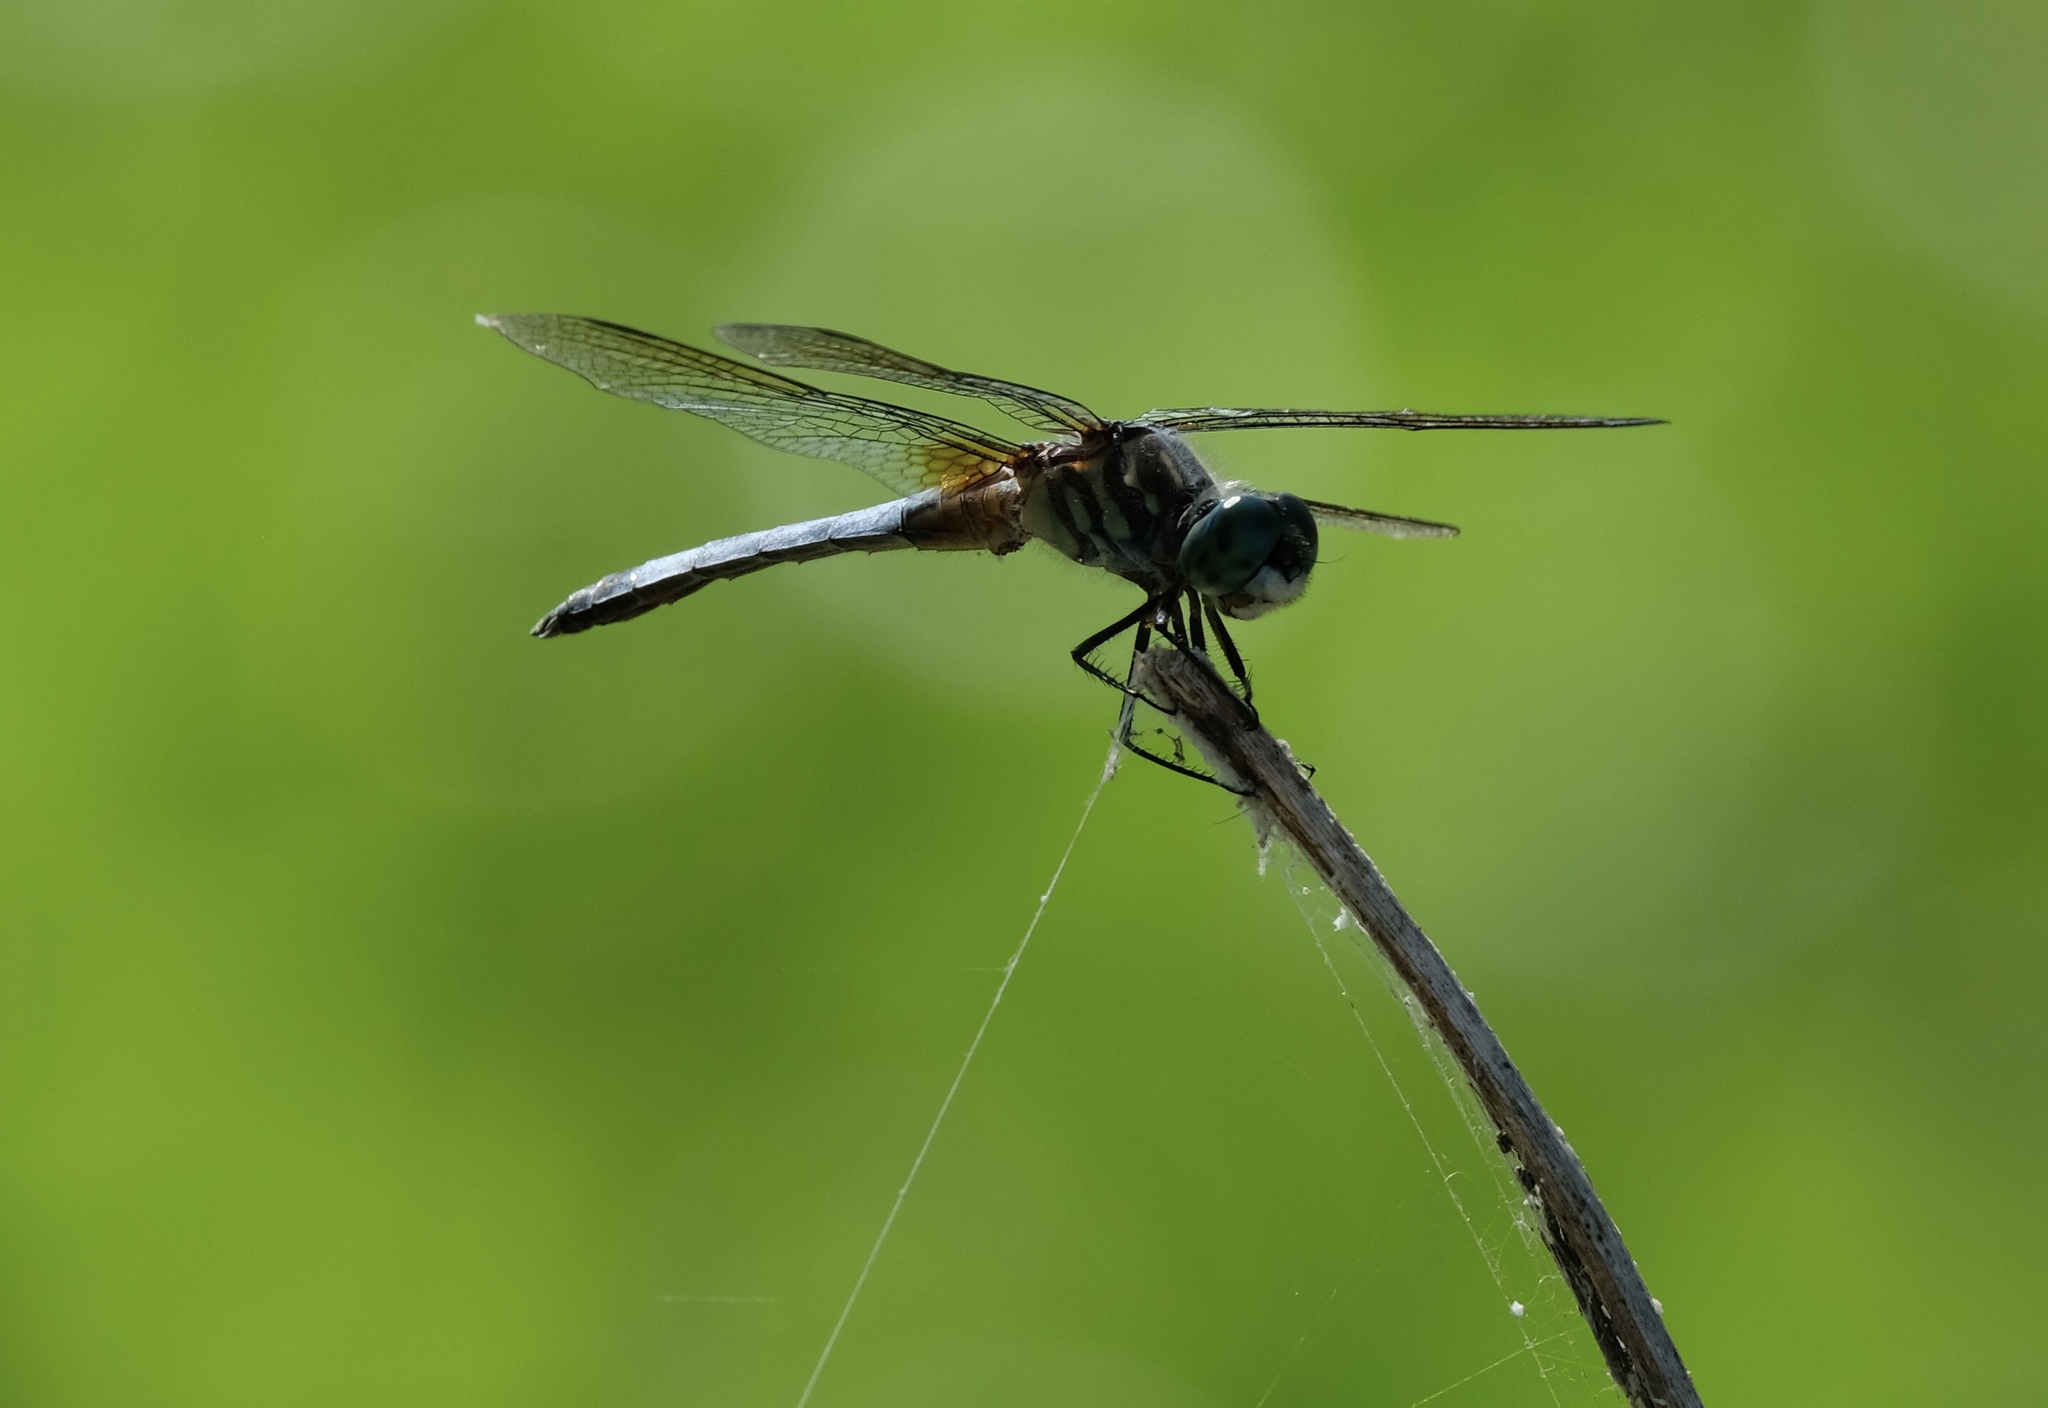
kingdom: Animalia
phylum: Arthropoda
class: Insecta
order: Odonata
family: Libellulidae
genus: Pachydiplax
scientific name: Pachydiplax longipennis
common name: Blue dasher
